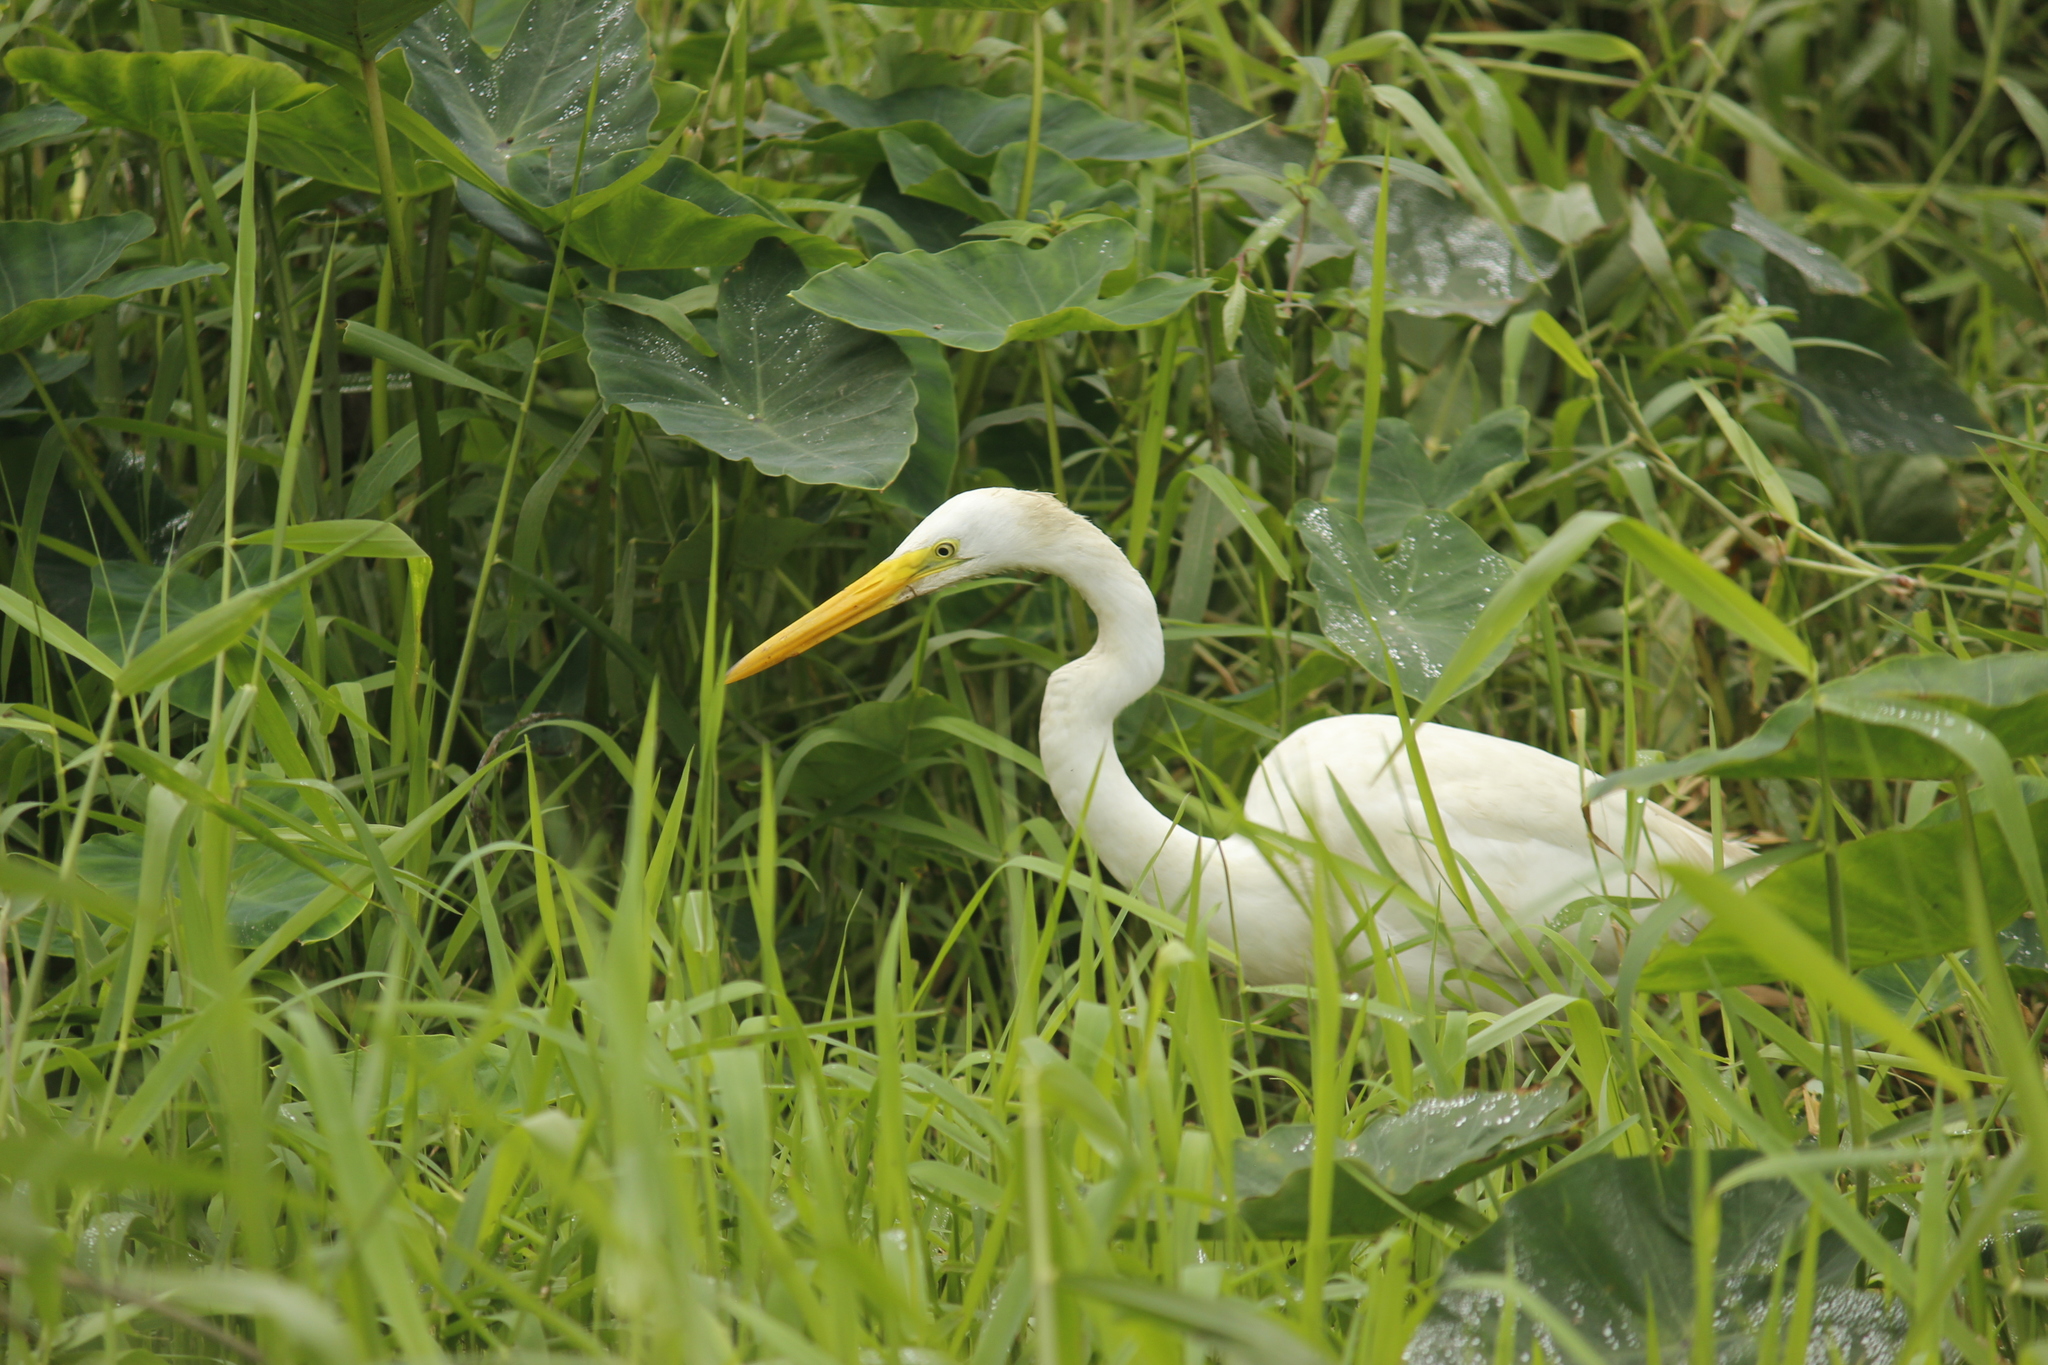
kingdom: Animalia
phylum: Chordata
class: Aves
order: Pelecaniformes
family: Ardeidae
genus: Ardea
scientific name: Ardea alba
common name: Great egret
